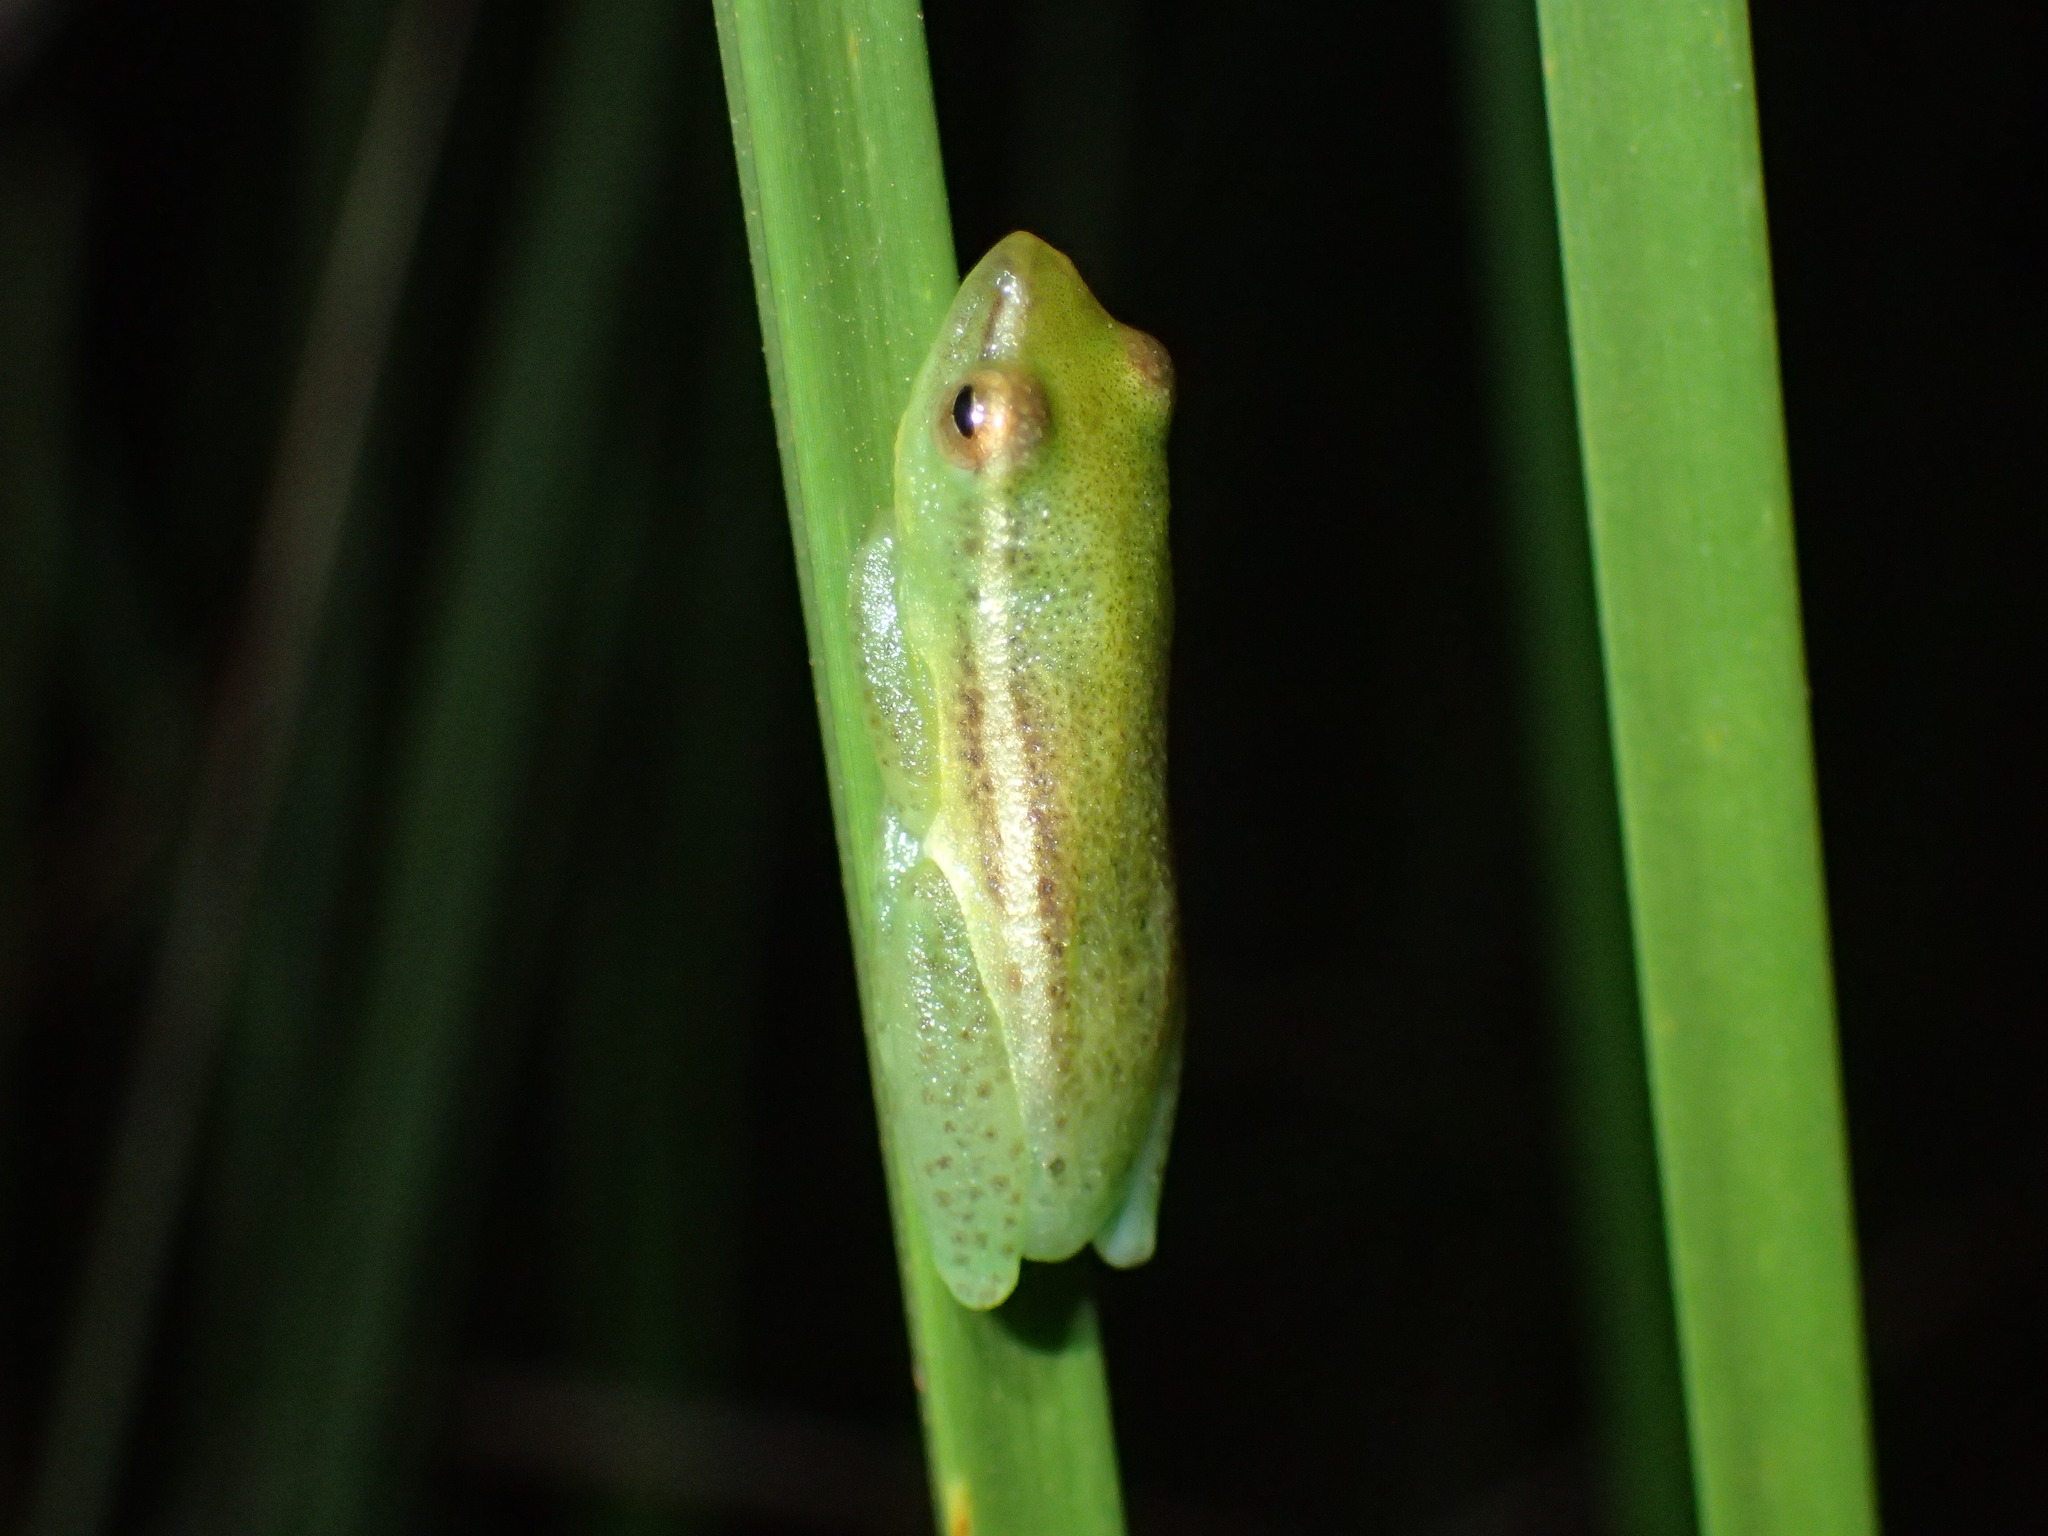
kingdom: Animalia
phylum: Chordata
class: Amphibia
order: Anura
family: Hyperoliidae
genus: Hyperolius
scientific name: Hyperolius nasicus
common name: Pointed long reed frog
